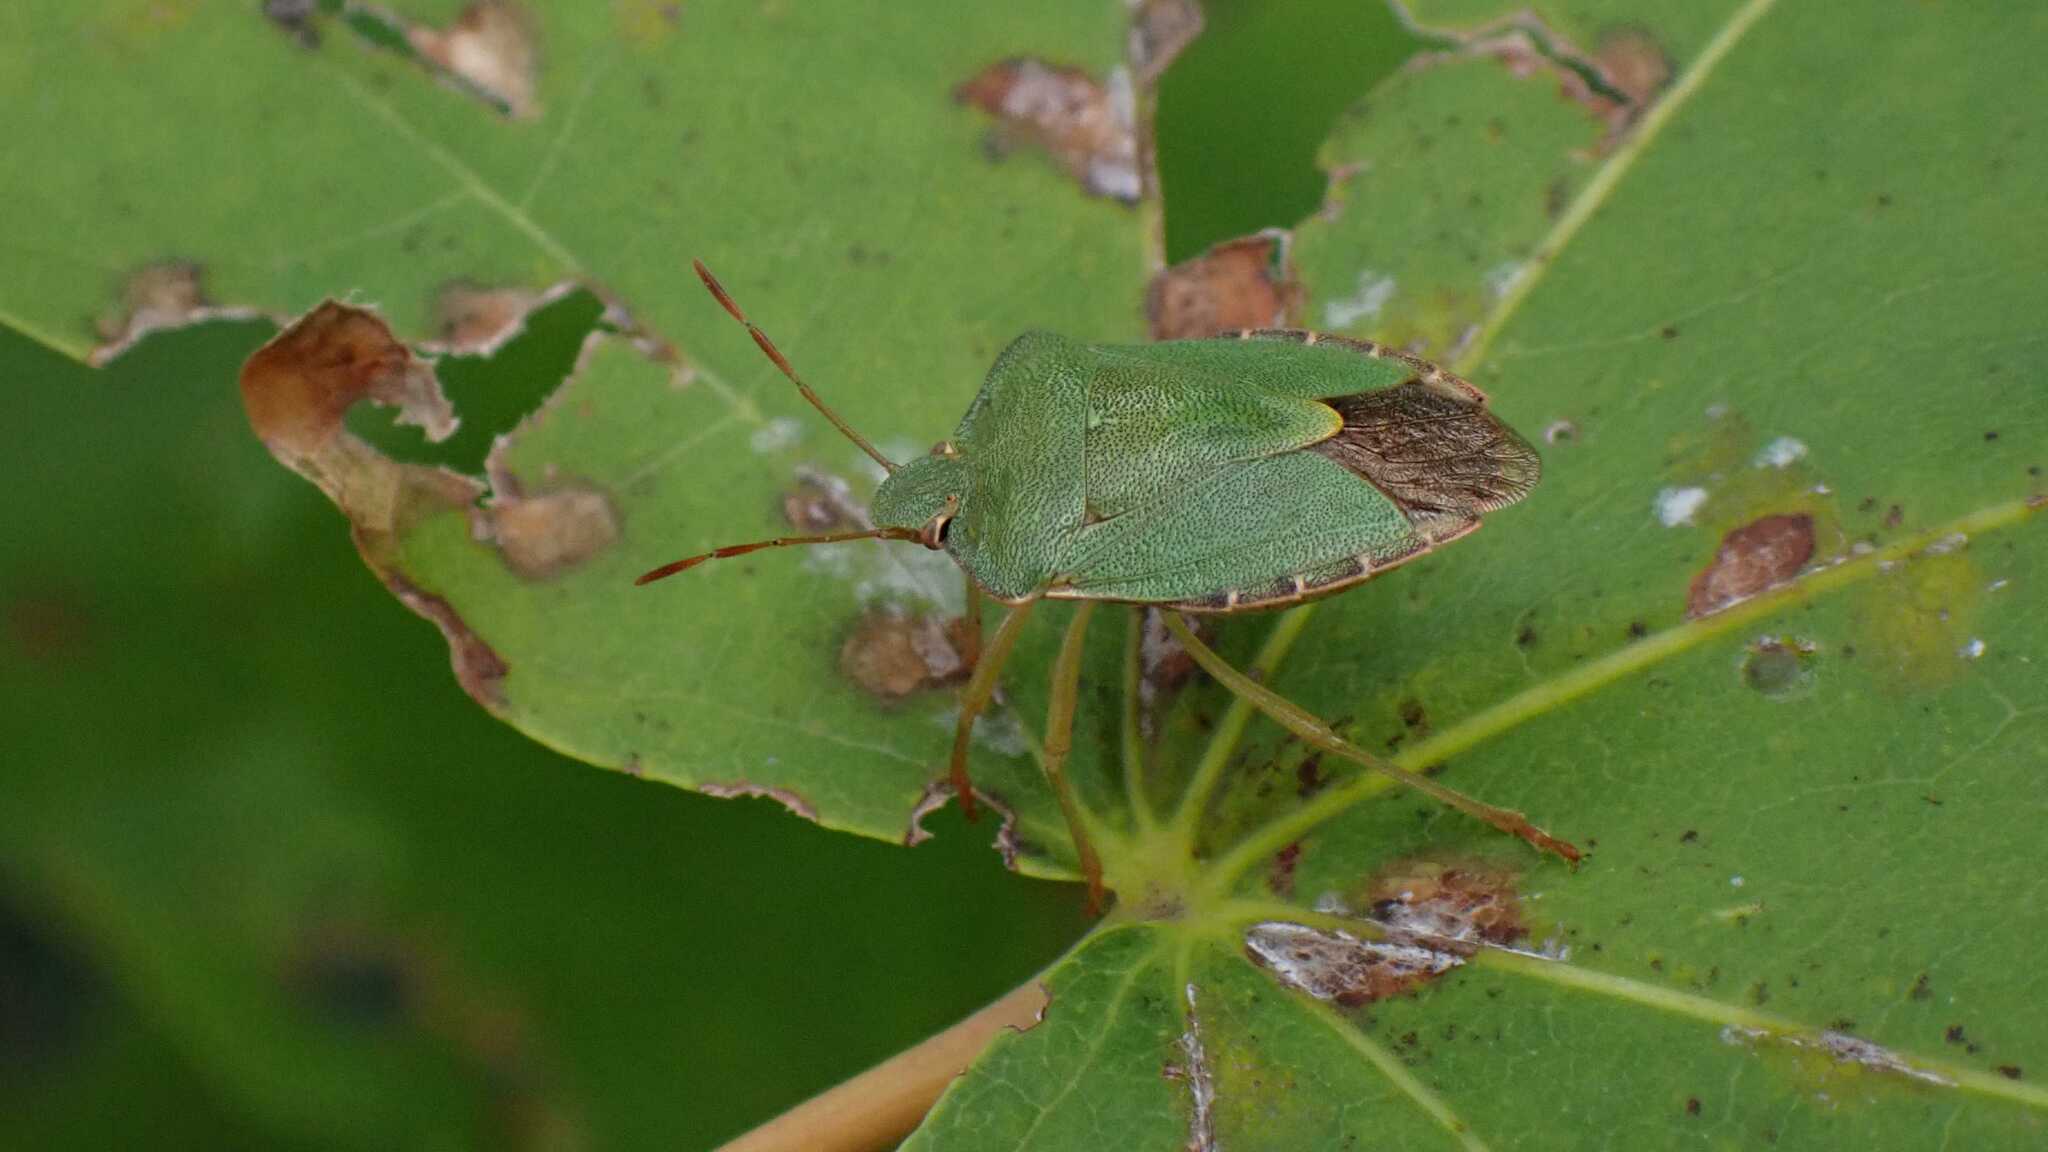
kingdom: Animalia
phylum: Arthropoda
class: Insecta
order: Hemiptera
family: Pentatomidae
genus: Palomena
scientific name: Palomena prasina
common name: Green shieldbug
